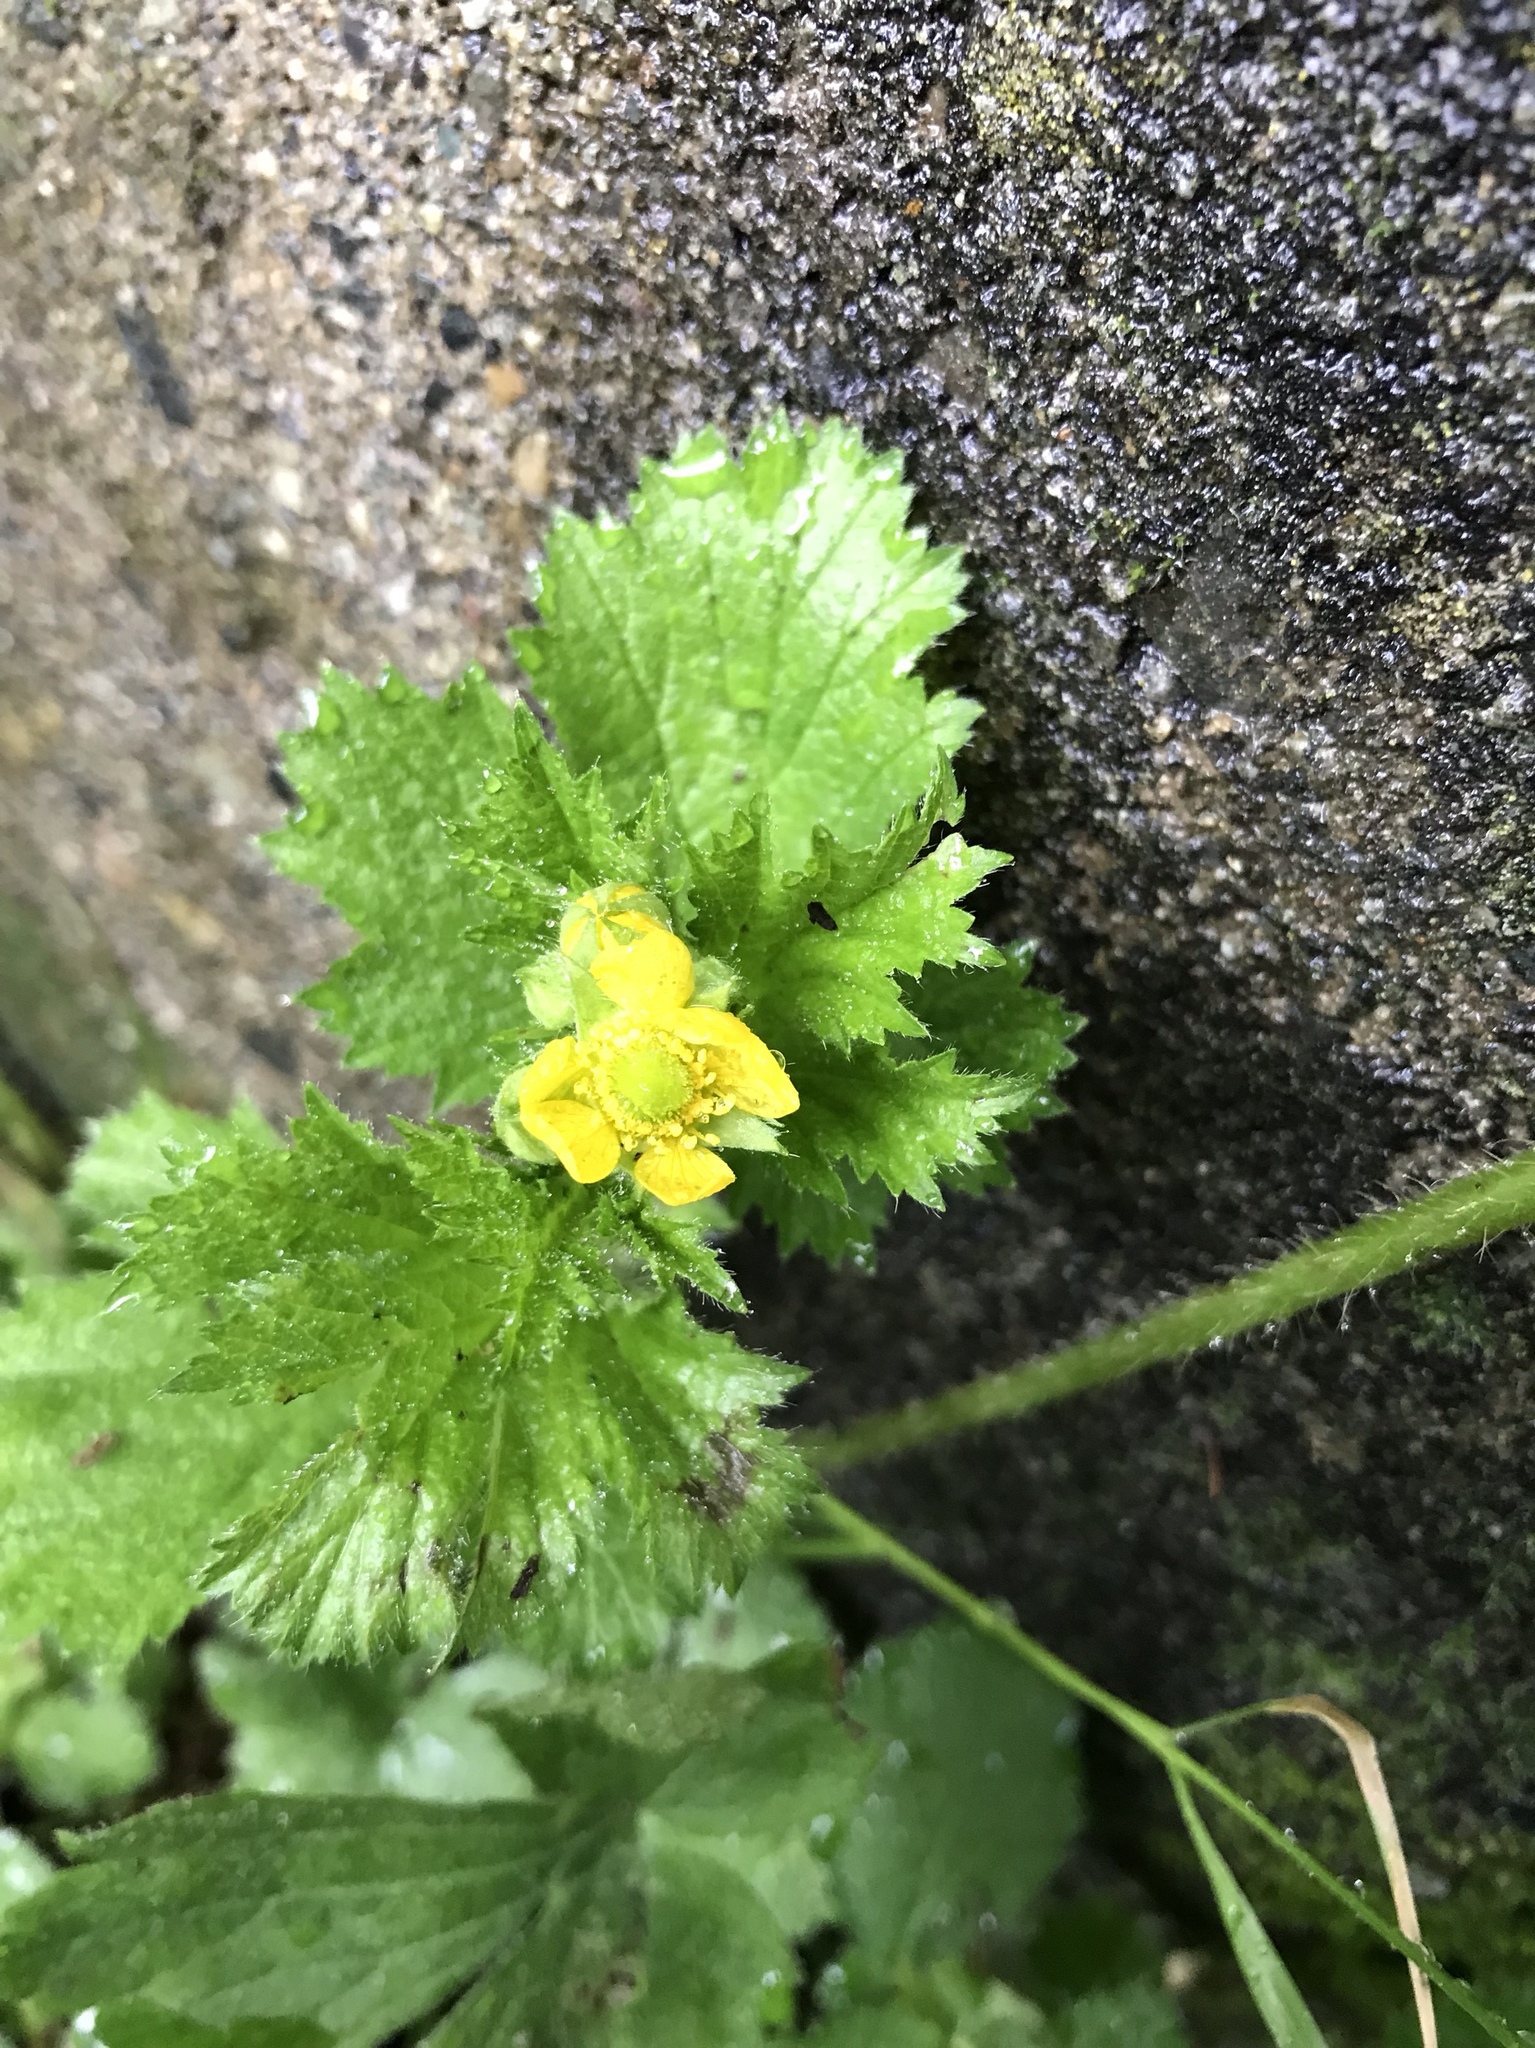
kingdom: Plantae
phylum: Tracheophyta
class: Magnoliopsida
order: Rosales
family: Rosaceae
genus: Geum
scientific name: Geum macrophyllum
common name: Large-leaved avens
